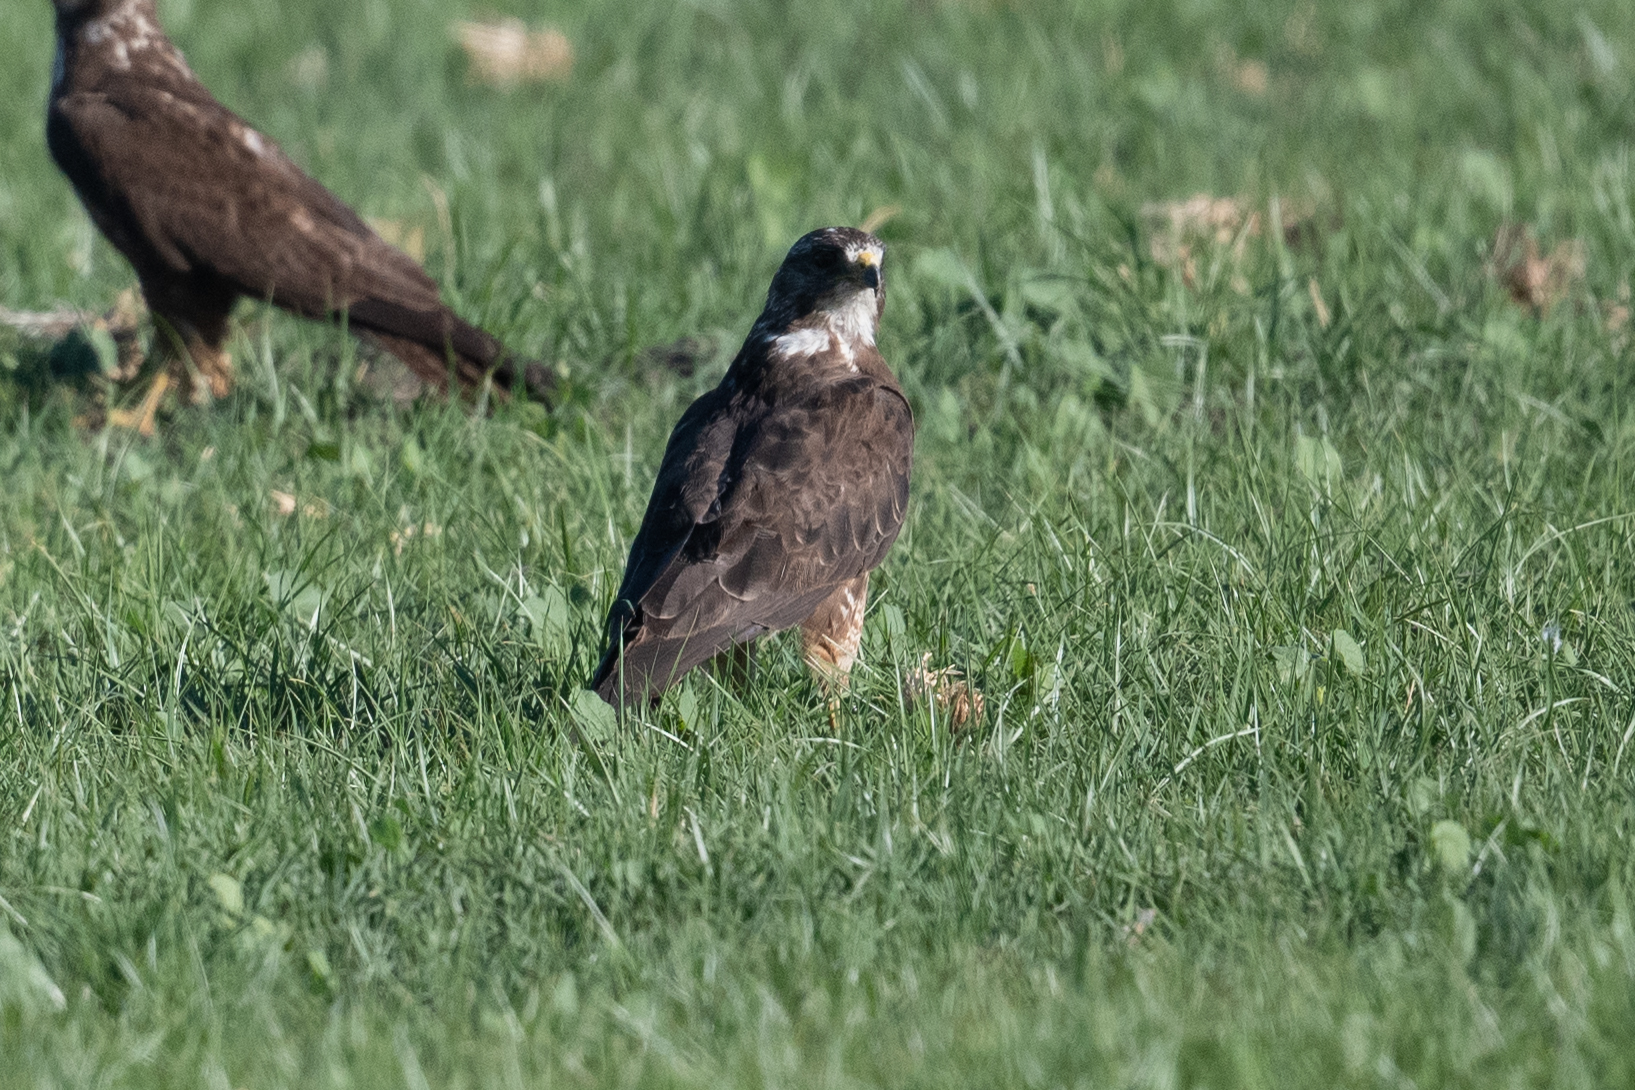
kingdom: Animalia
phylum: Chordata
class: Aves
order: Accipitriformes
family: Accipitridae
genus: Buteo
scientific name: Buteo swainsoni
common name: Swainson's hawk
